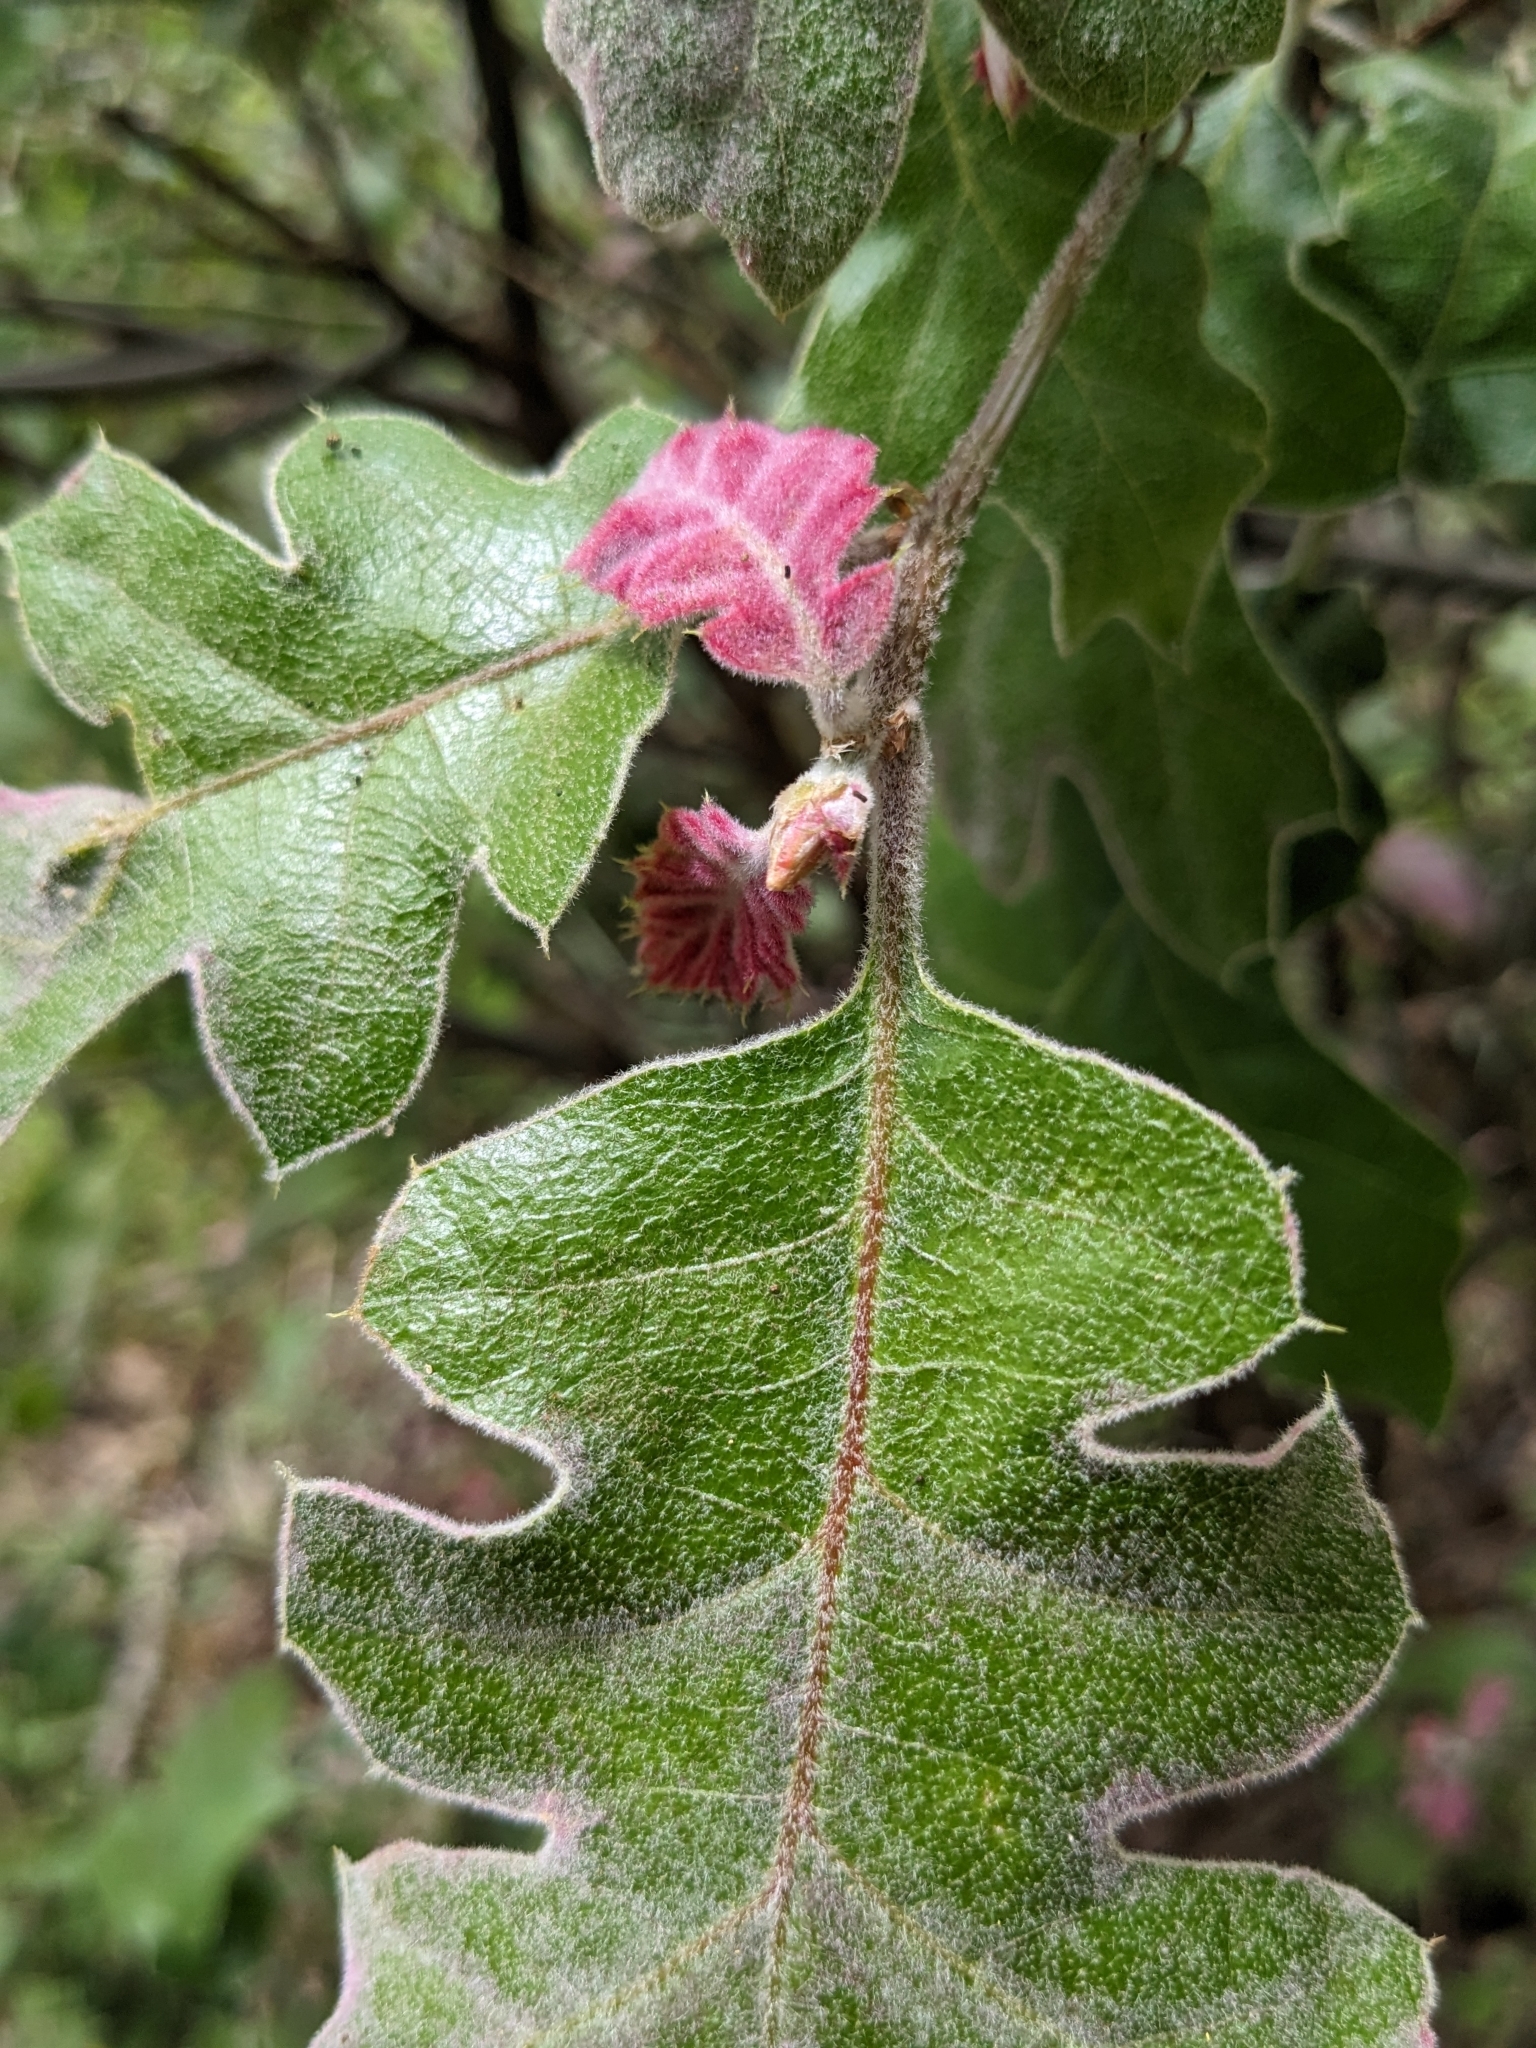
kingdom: Plantae
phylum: Tracheophyta
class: Magnoliopsida
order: Fagales
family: Fagaceae
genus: Quercus
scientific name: Quercus kelloggii
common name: California black oak
